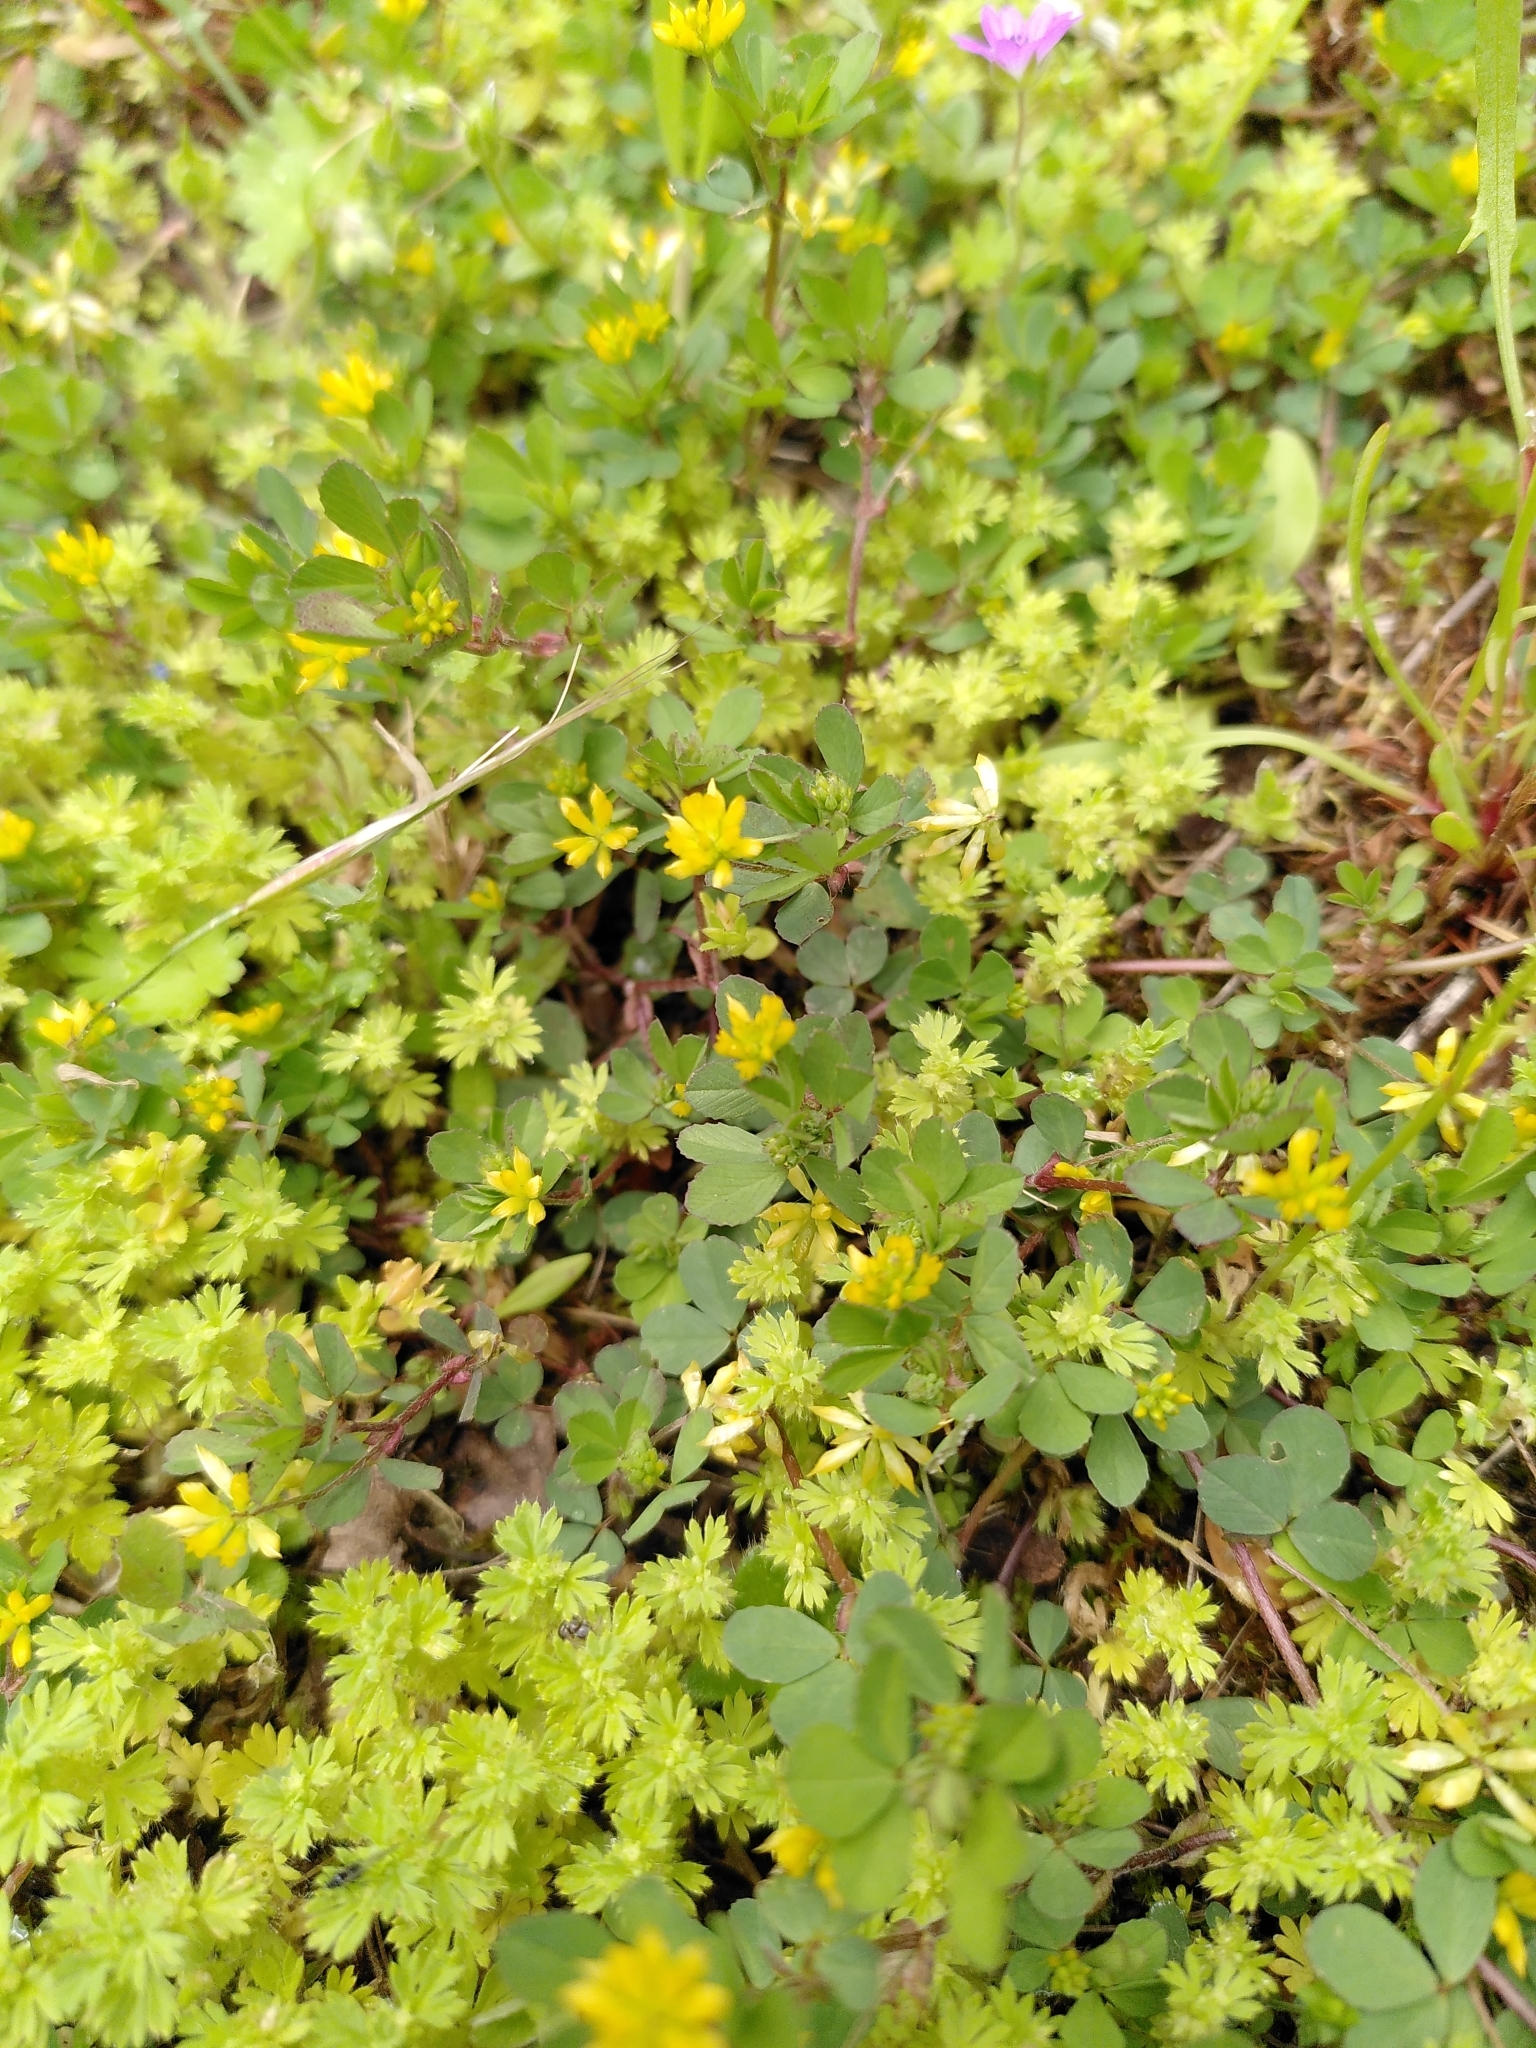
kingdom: Plantae
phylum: Tracheophyta
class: Magnoliopsida
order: Fabales
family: Fabaceae
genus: Trifolium
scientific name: Trifolium dubium
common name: Suckling clover
